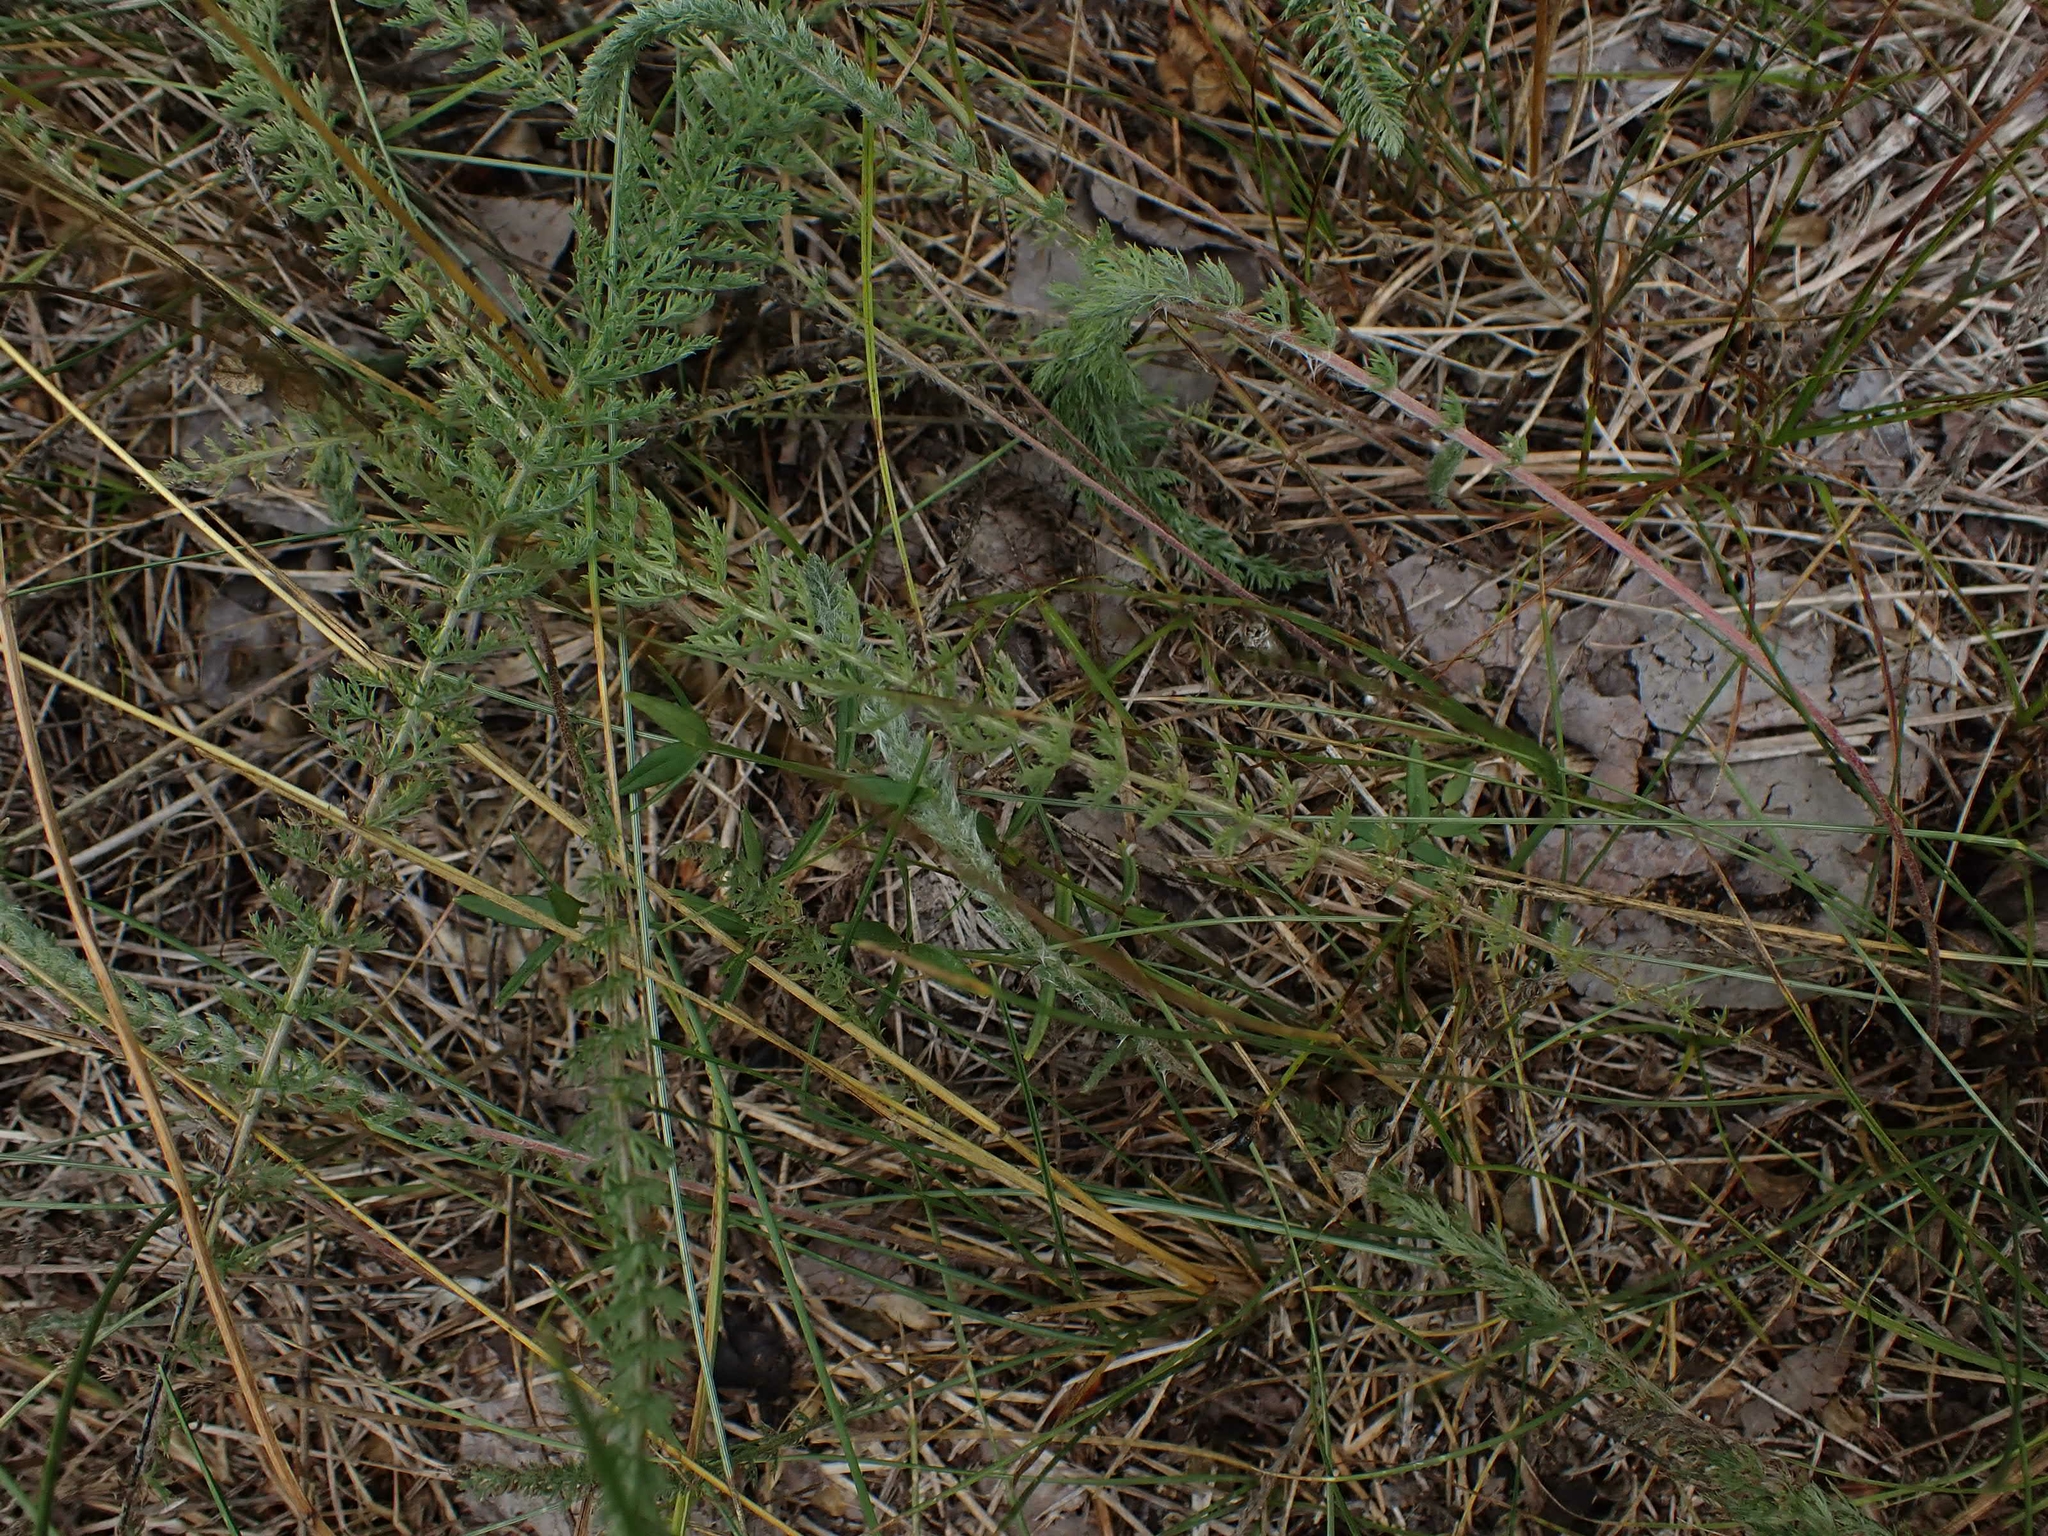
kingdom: Plantae
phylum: Tracheophyta
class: Magnoliopsida
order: Asterales
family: Asteraceae
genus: Achillea
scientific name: Achillea millefolium
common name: Yarrow
